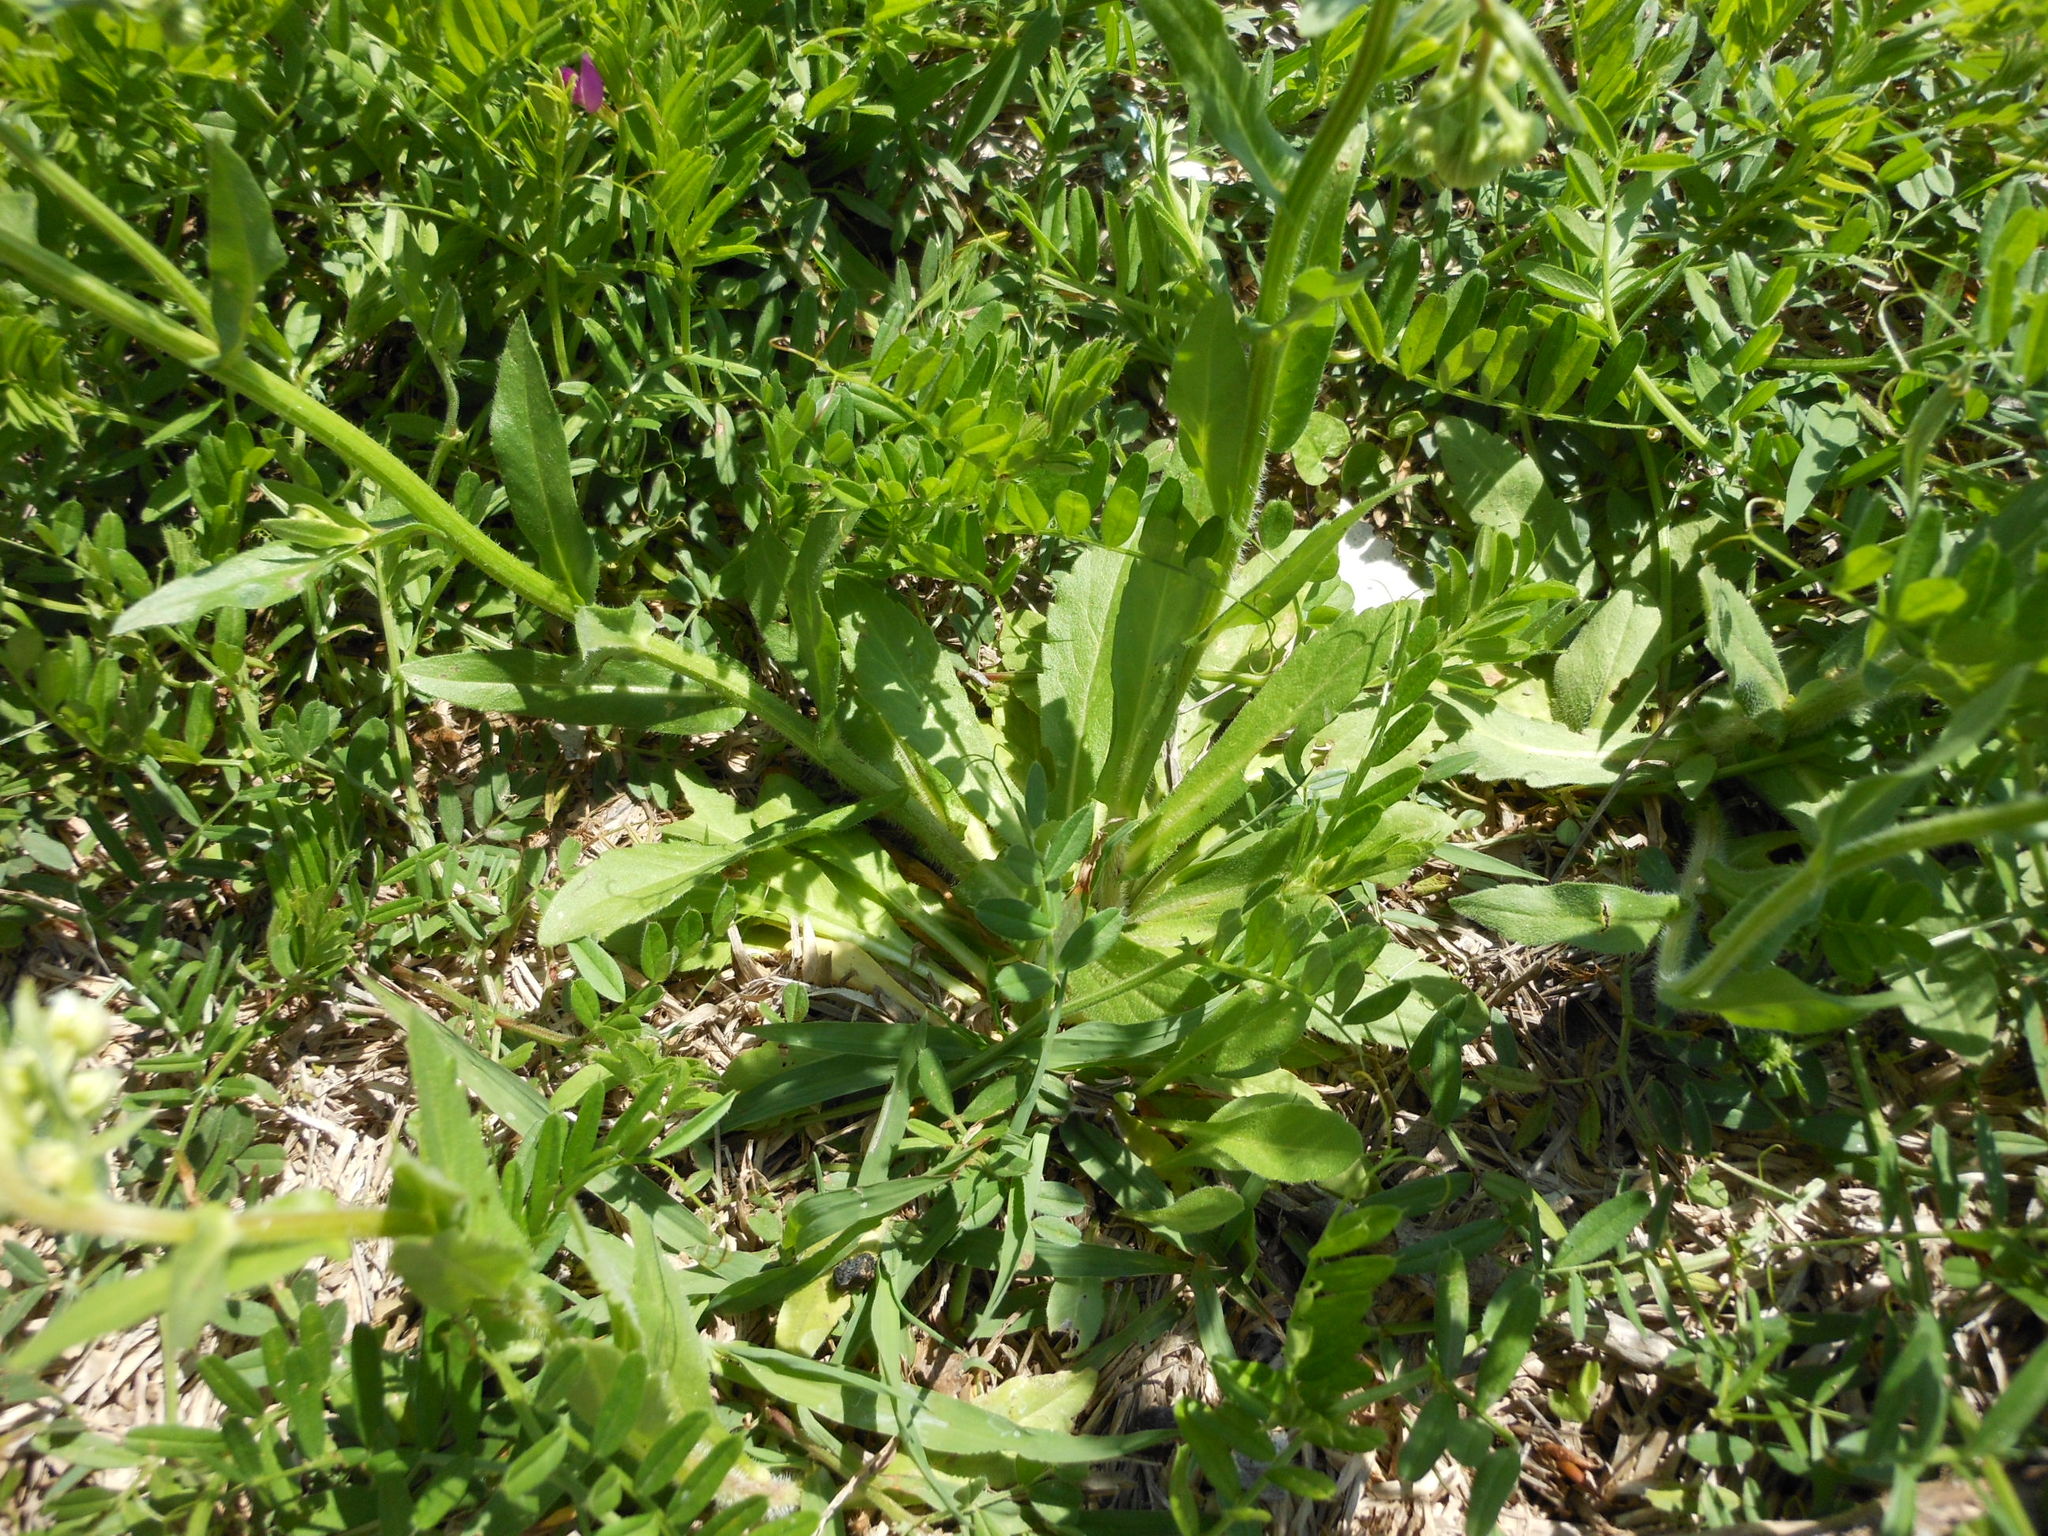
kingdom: Plantae
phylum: Tracheophyta
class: Magnoliopsida
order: Asterales
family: Asteraceae
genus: Erigeron
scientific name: Erigeron philadelphicus
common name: Robin's-plantain
